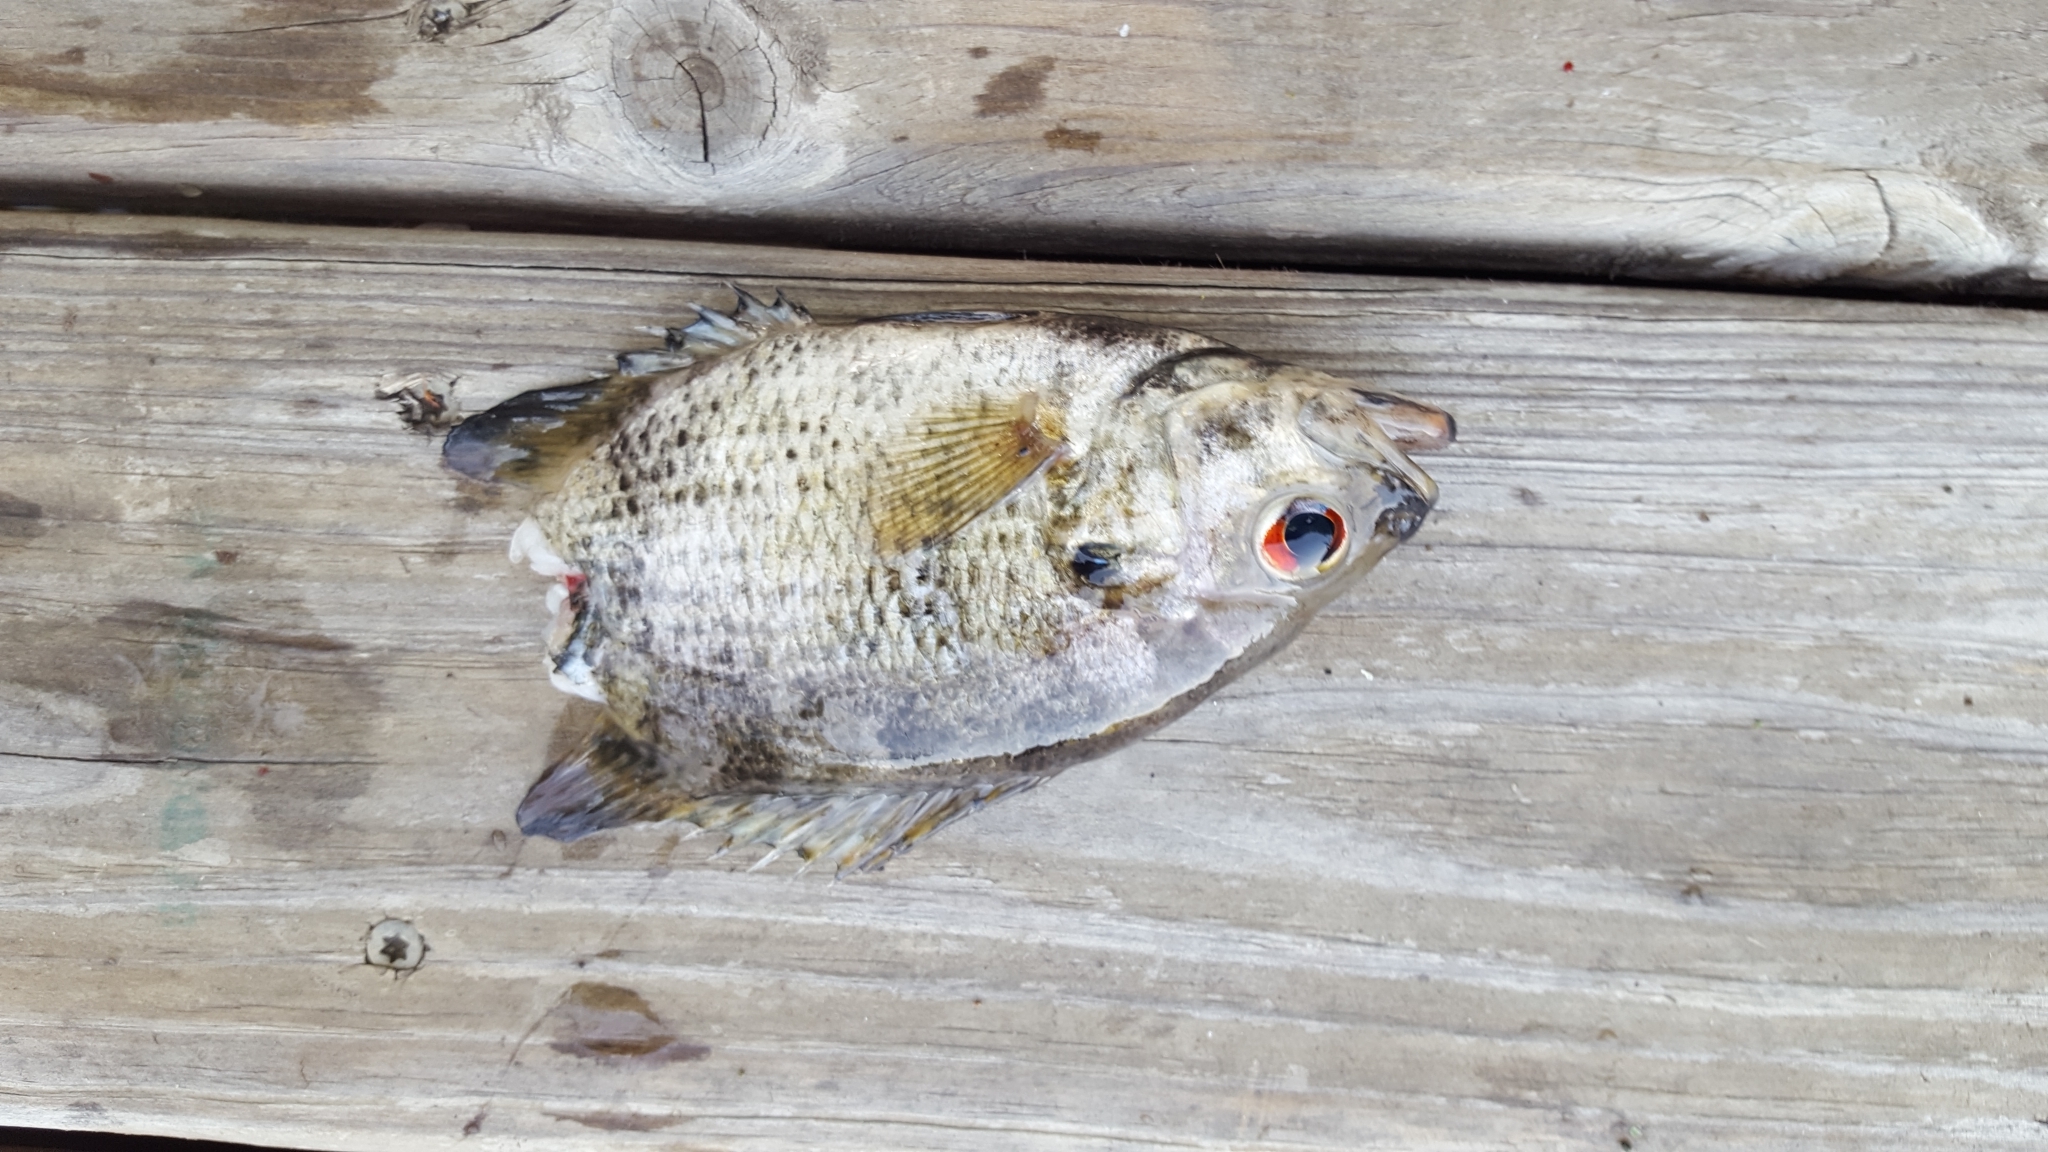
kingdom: Animalia
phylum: Chordata
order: Perciformes
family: Centrarchidae
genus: Ambloplites
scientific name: Ambloplites rupestris
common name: Rock bass
